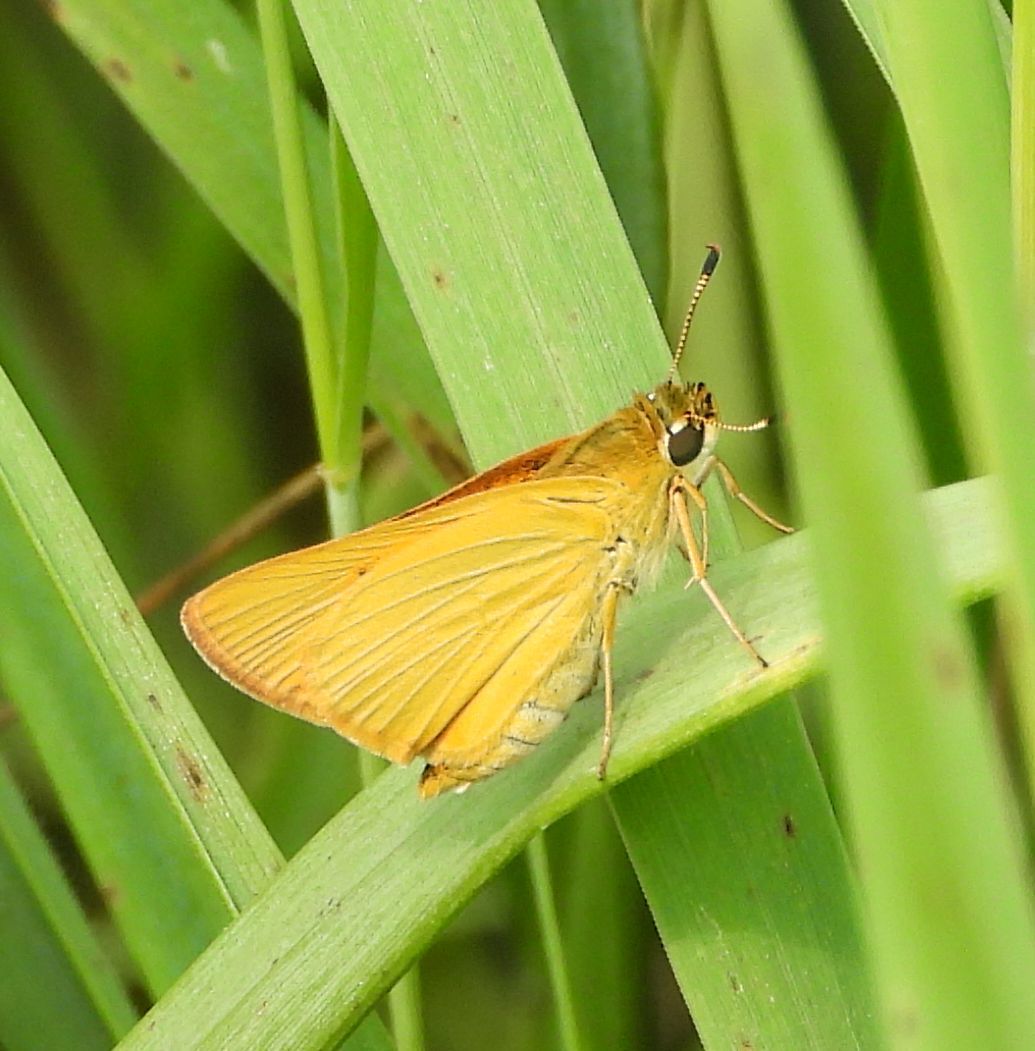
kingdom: Animalia
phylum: Arthropoda
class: Insecta
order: Lepidoptera
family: Hesperiidae
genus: Atrytone
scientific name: Atrytone delaware
